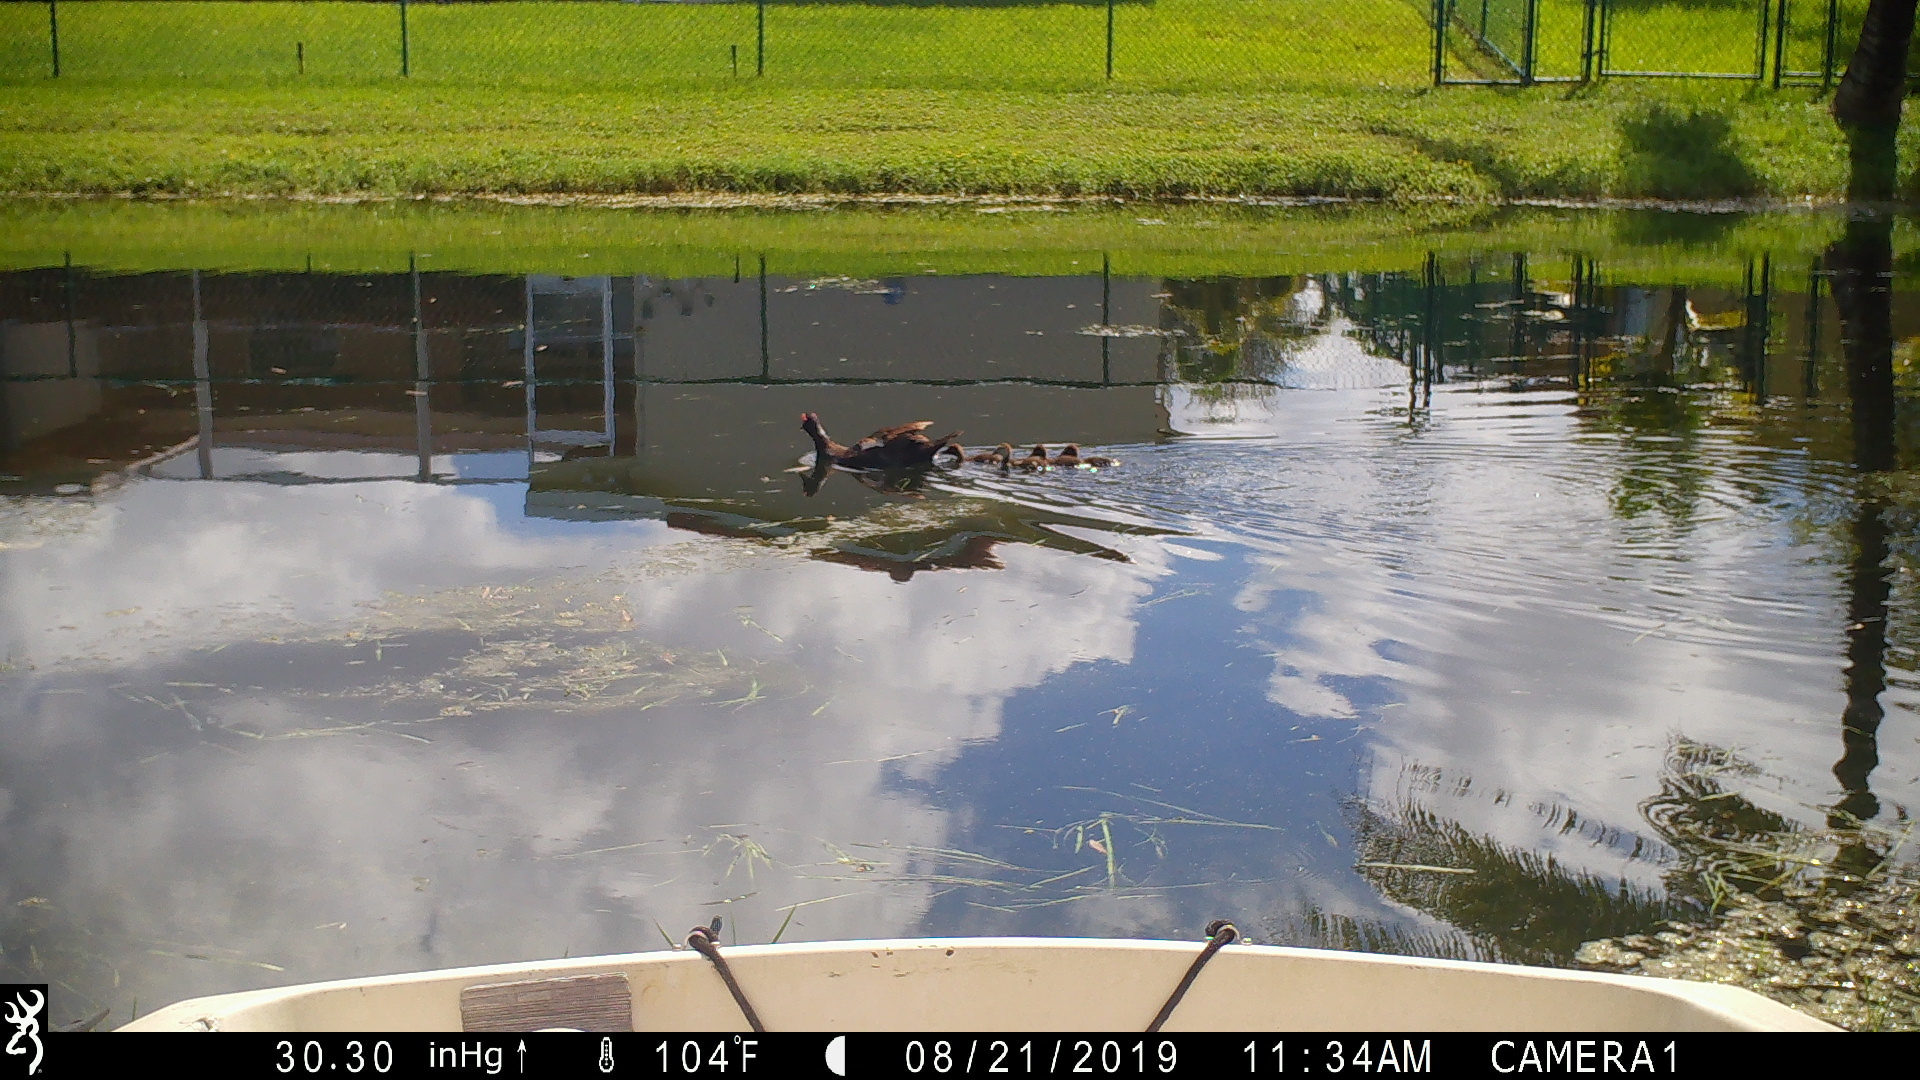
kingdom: Animalia
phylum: Chordata
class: Aves
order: Anseriformes
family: Anatidae
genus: Cairina
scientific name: Cairina moschata
